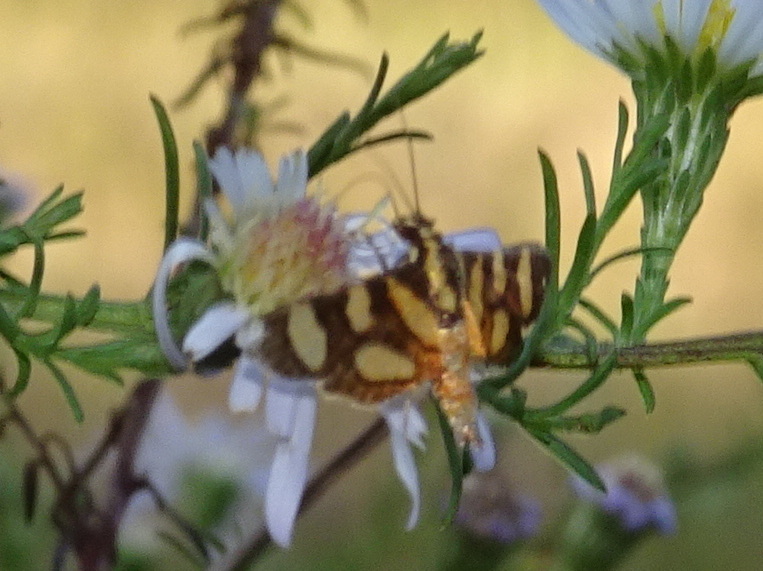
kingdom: Animalia
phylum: Arthropoda
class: Insecta
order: Lepidoptera
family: Crambidae
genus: Syngamia
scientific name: Syngamia florella
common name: Orange-spotted flower moth
